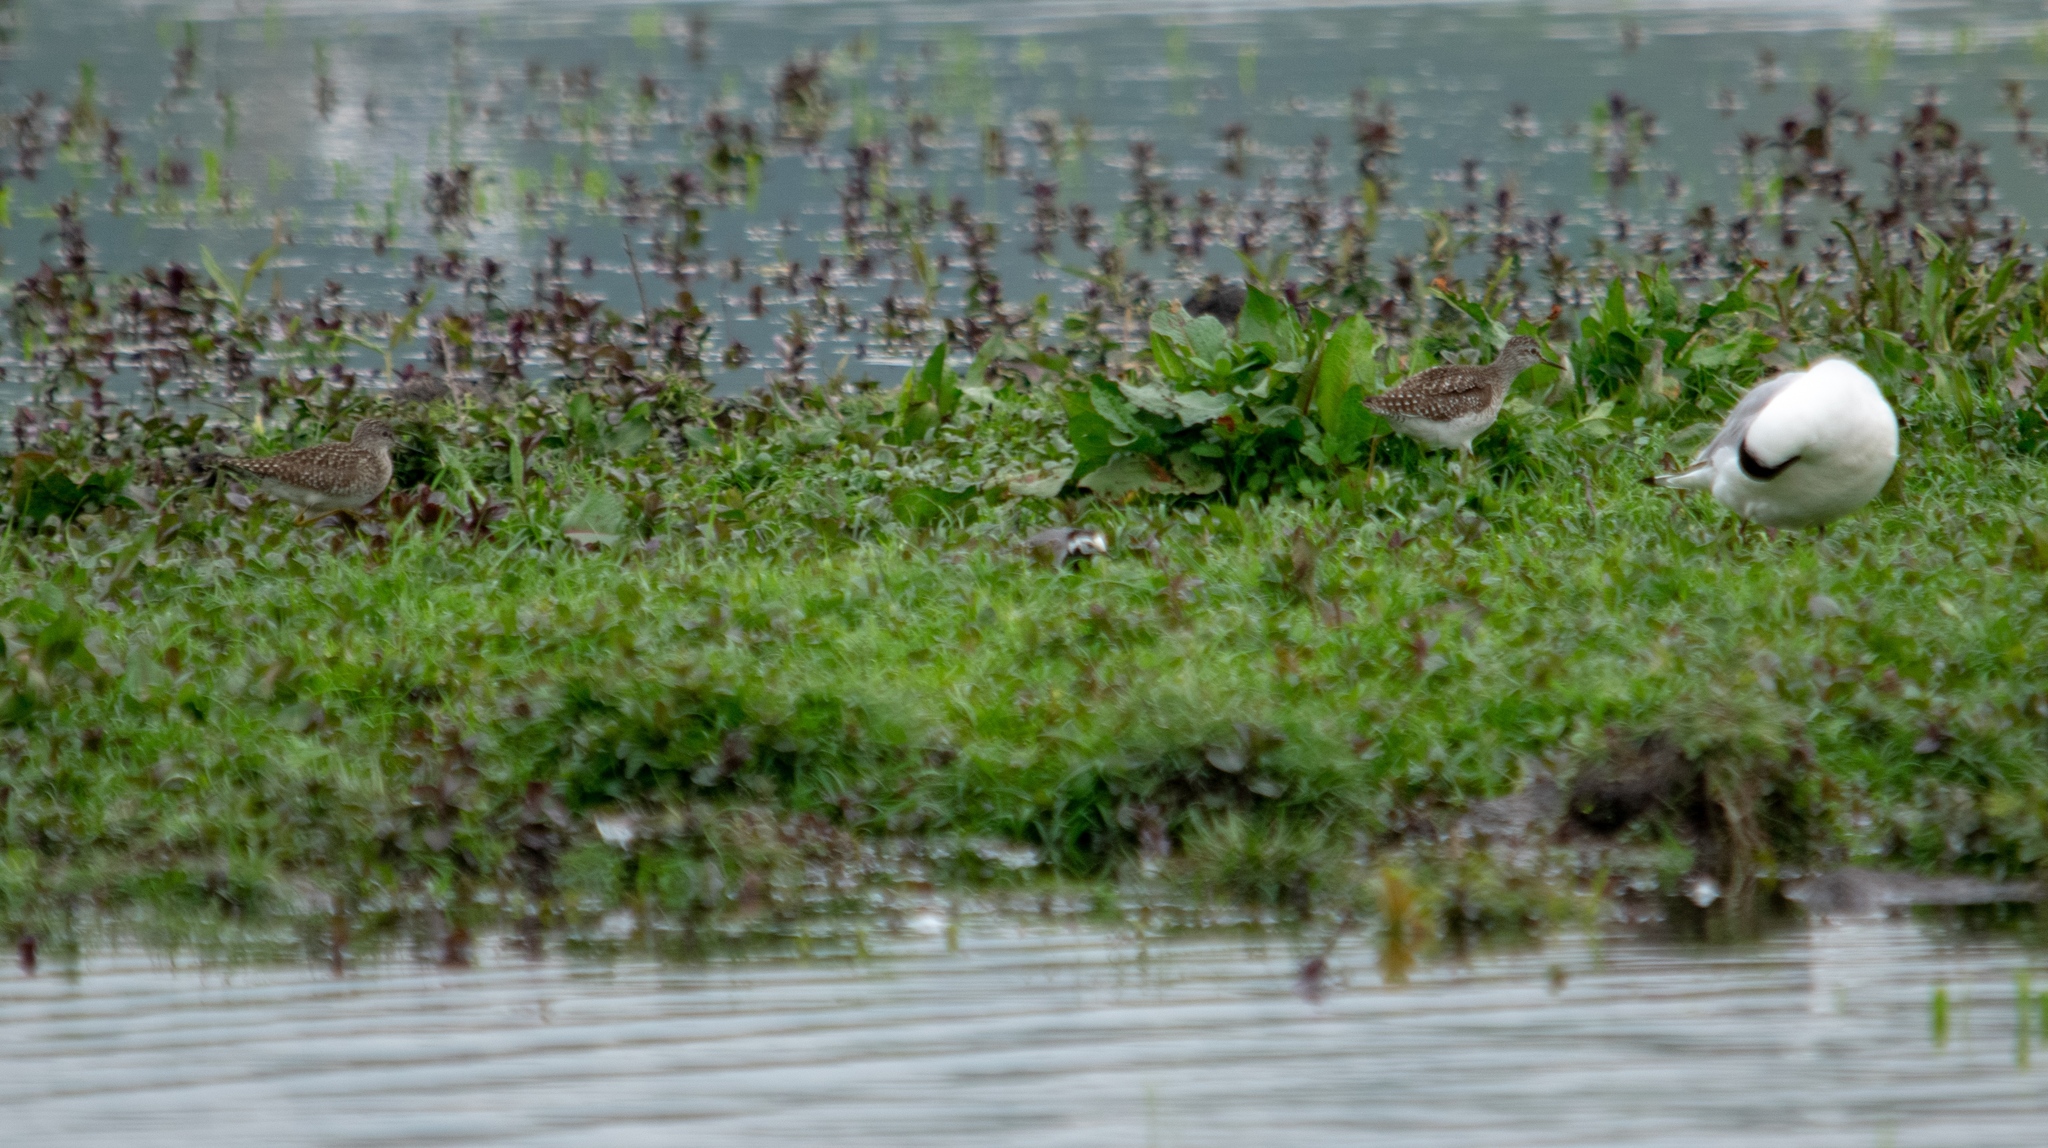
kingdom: Animalia
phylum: Chordata
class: Aves
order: Charadriiformes
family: Scolopacidae
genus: Tringa
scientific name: Tringa glareola
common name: Wood sandpiper
